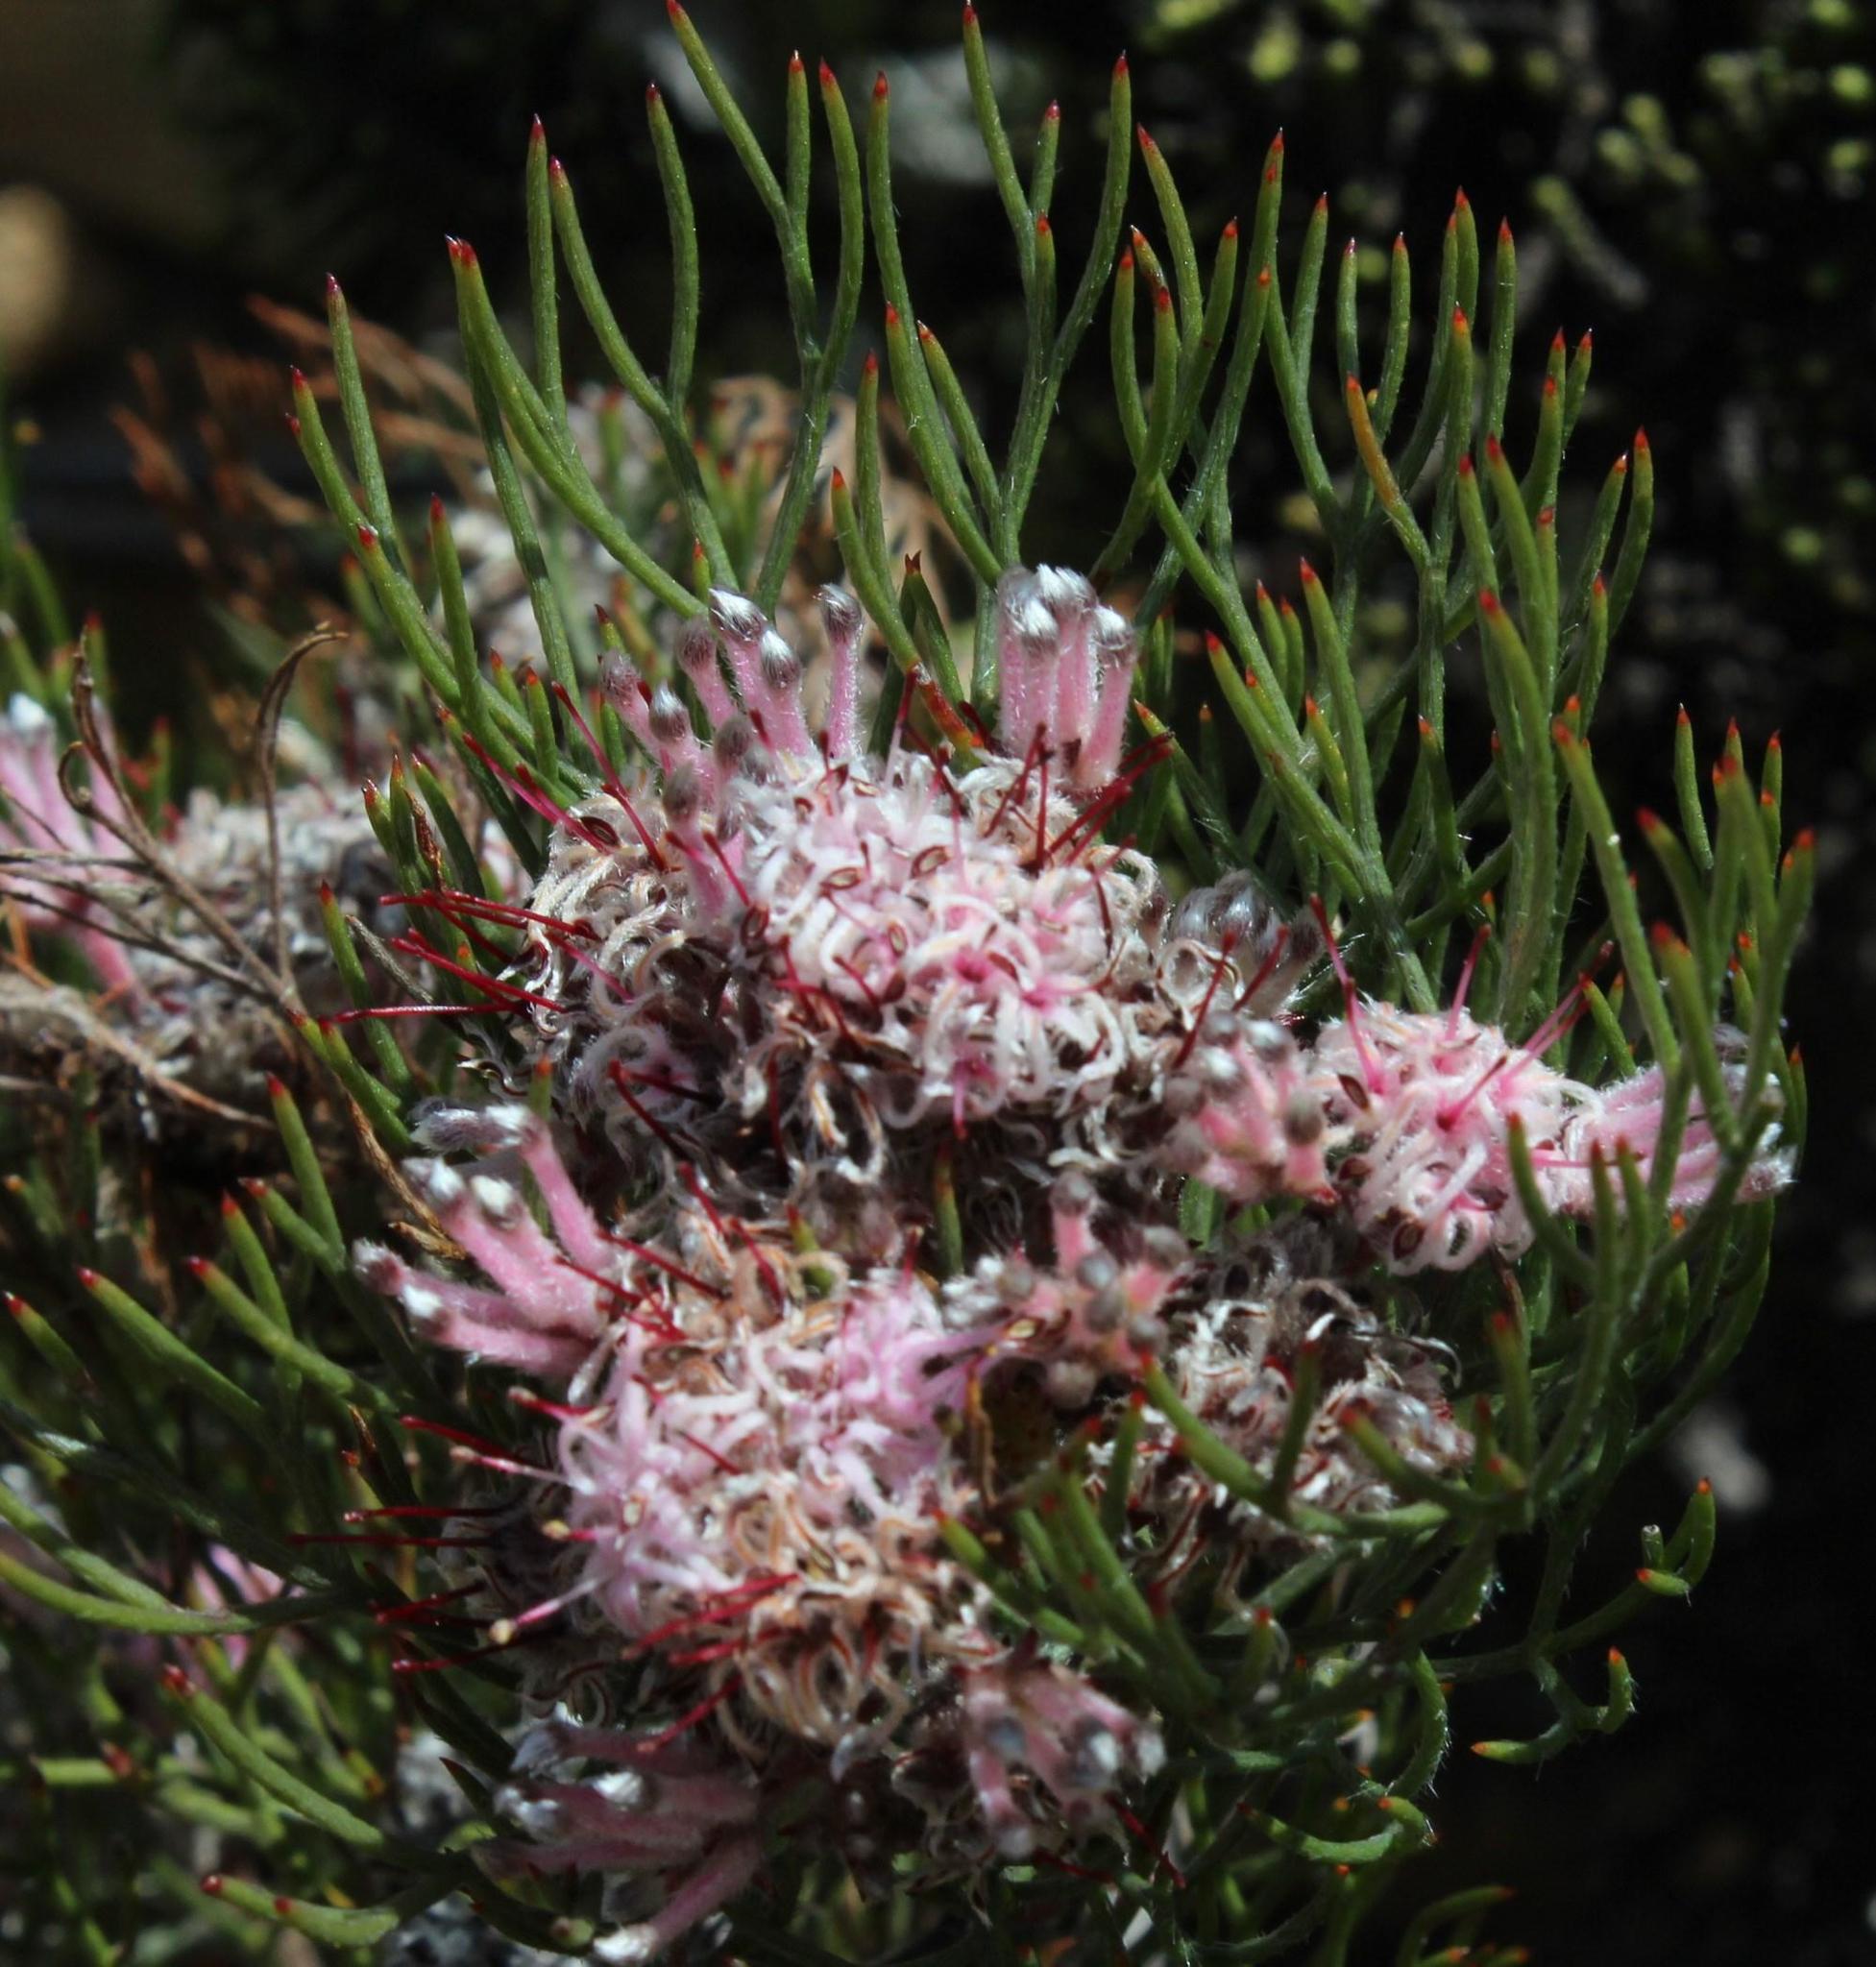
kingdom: Plantae
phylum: Tracheophyta
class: Magnoliopsida
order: Proteales
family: Proteaceae
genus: Serruria
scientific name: Serruria fasciflora
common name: Common pin spiderhead
